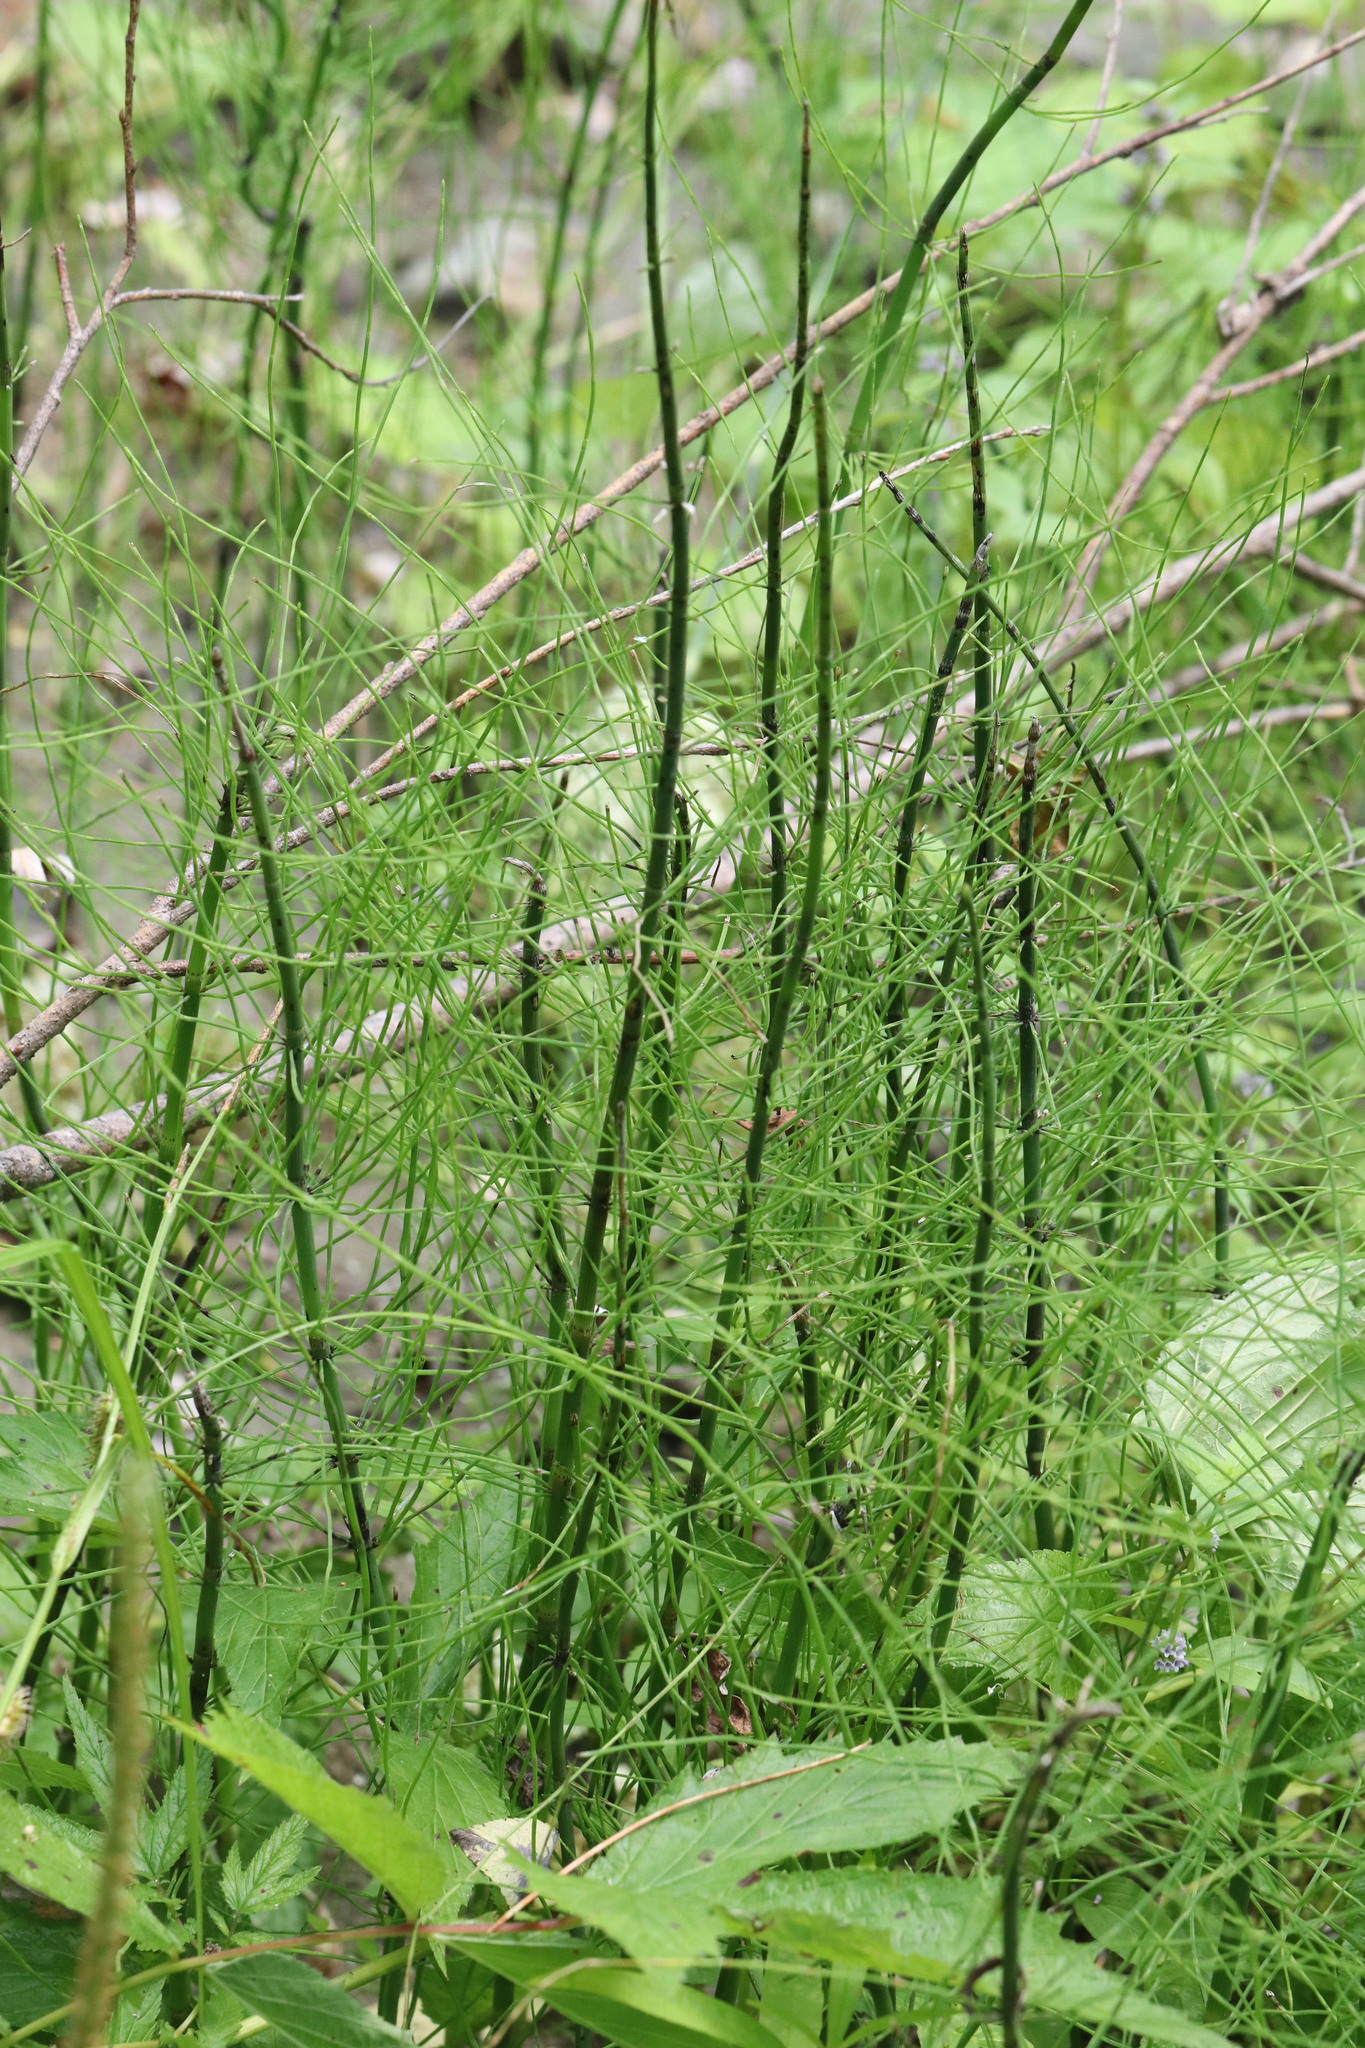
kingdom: Plantae
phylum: Tracheophyta
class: Polypodiopsida
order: Equisetales
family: Equisetaceae
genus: Equisetum
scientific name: Equisetum fluviatile
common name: Water horsetail
